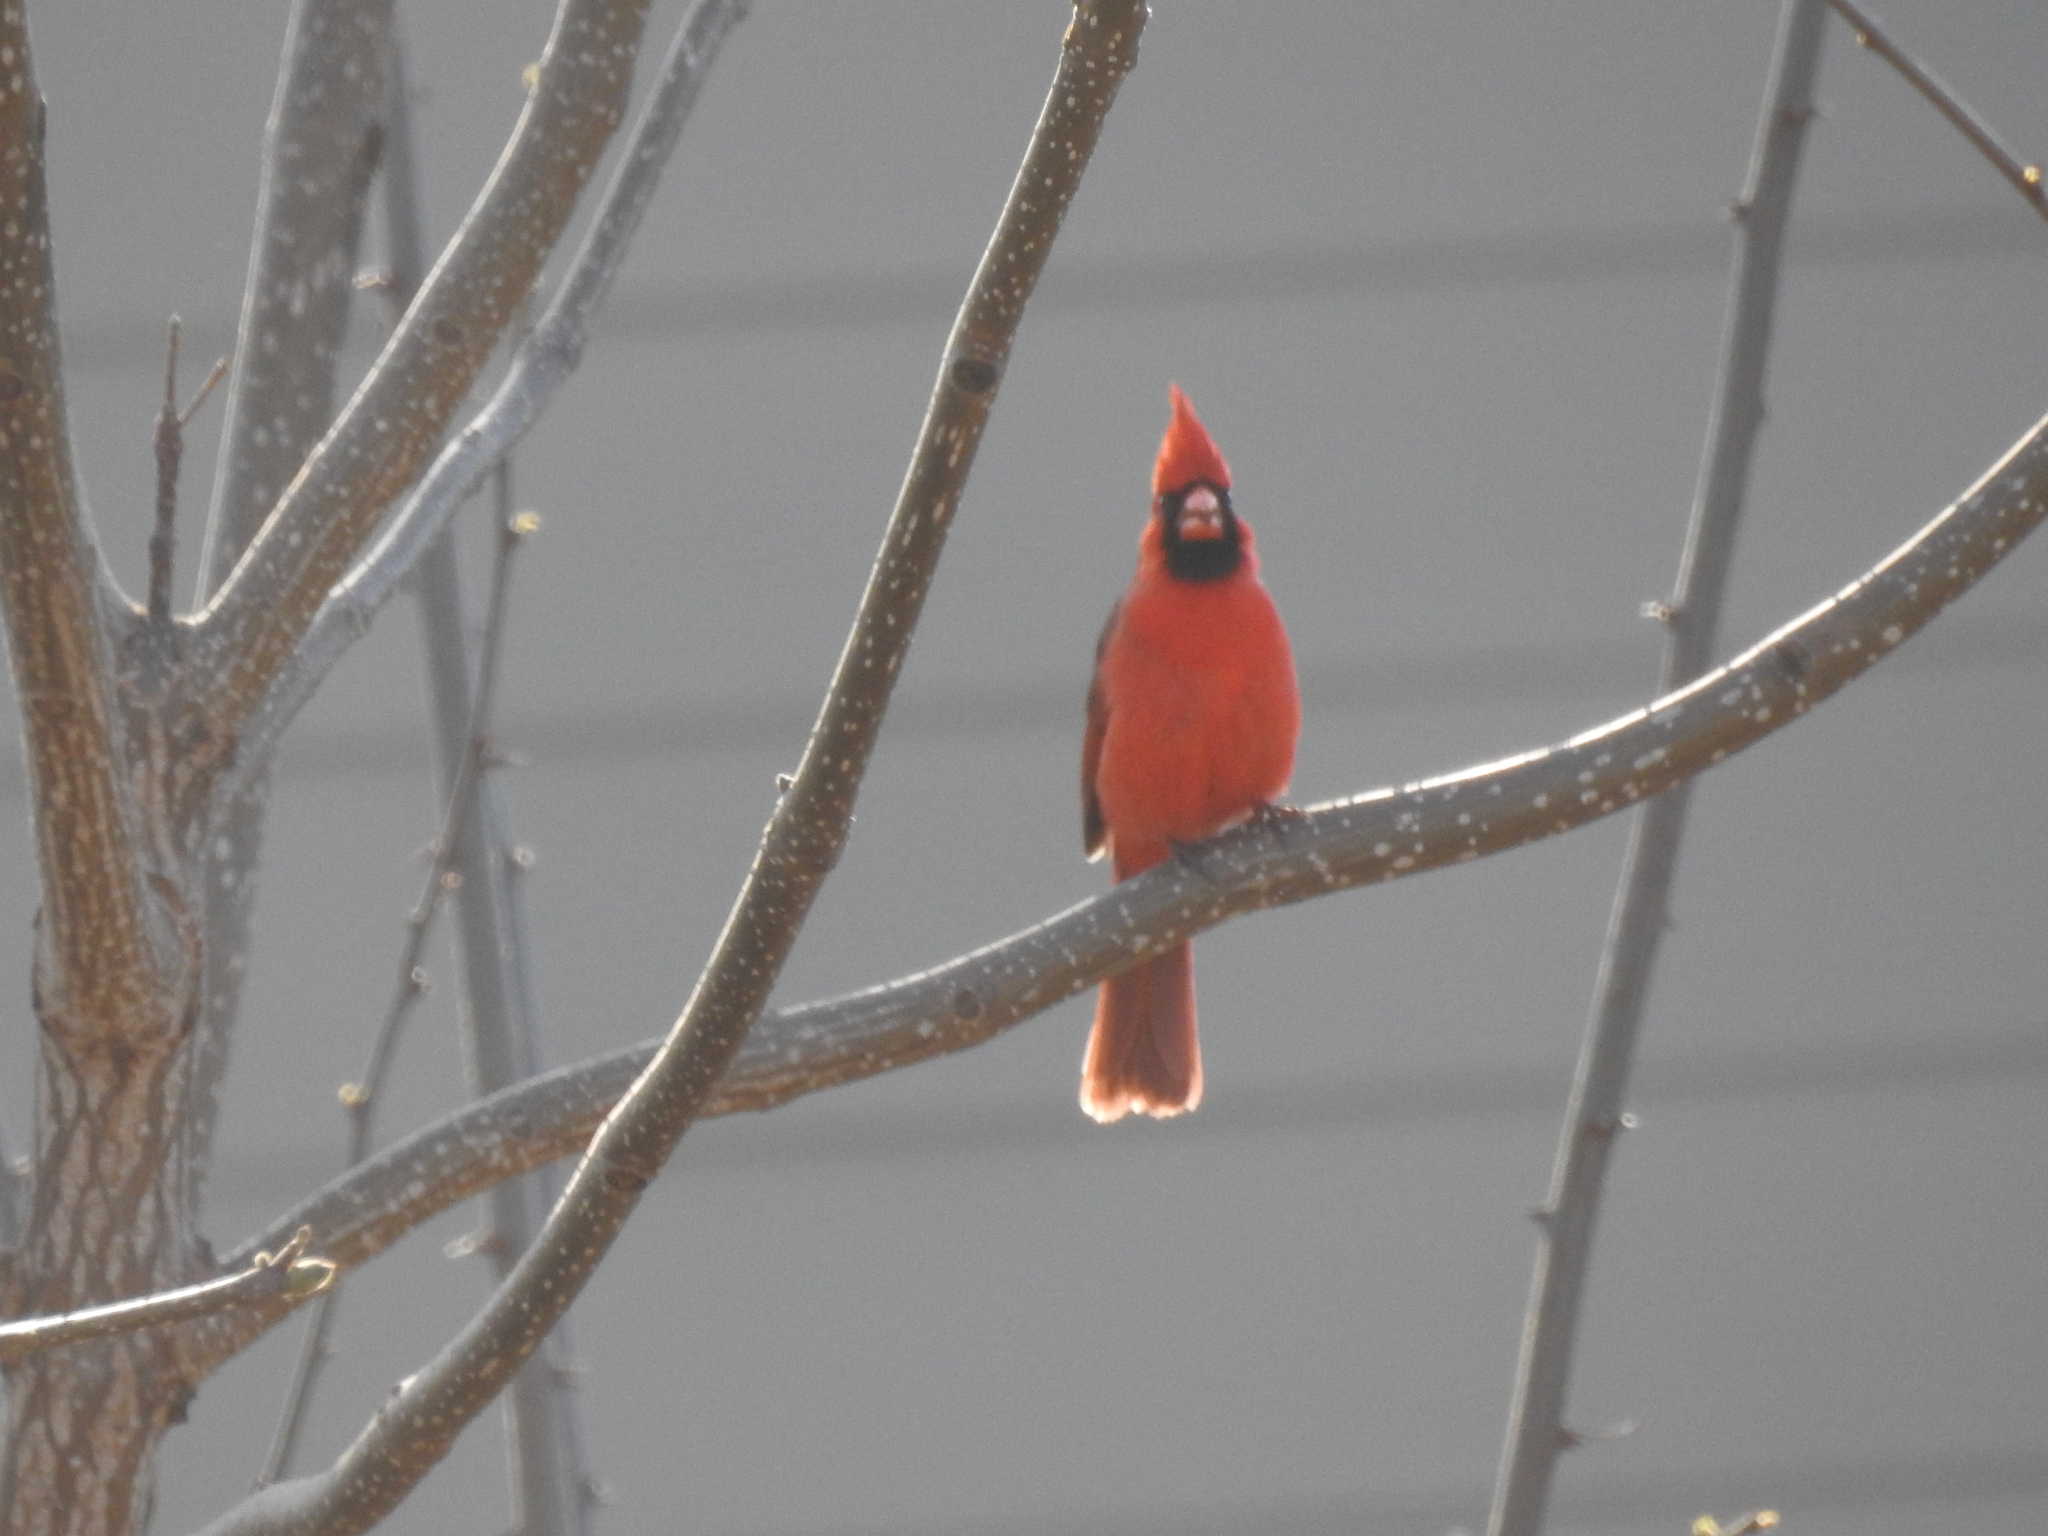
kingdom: Animalia
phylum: Chordata
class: Aves
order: Passeriformes
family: Cardinalidae
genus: Cardinalis
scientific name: Cardinalis cardinalis
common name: Northern cardinal
